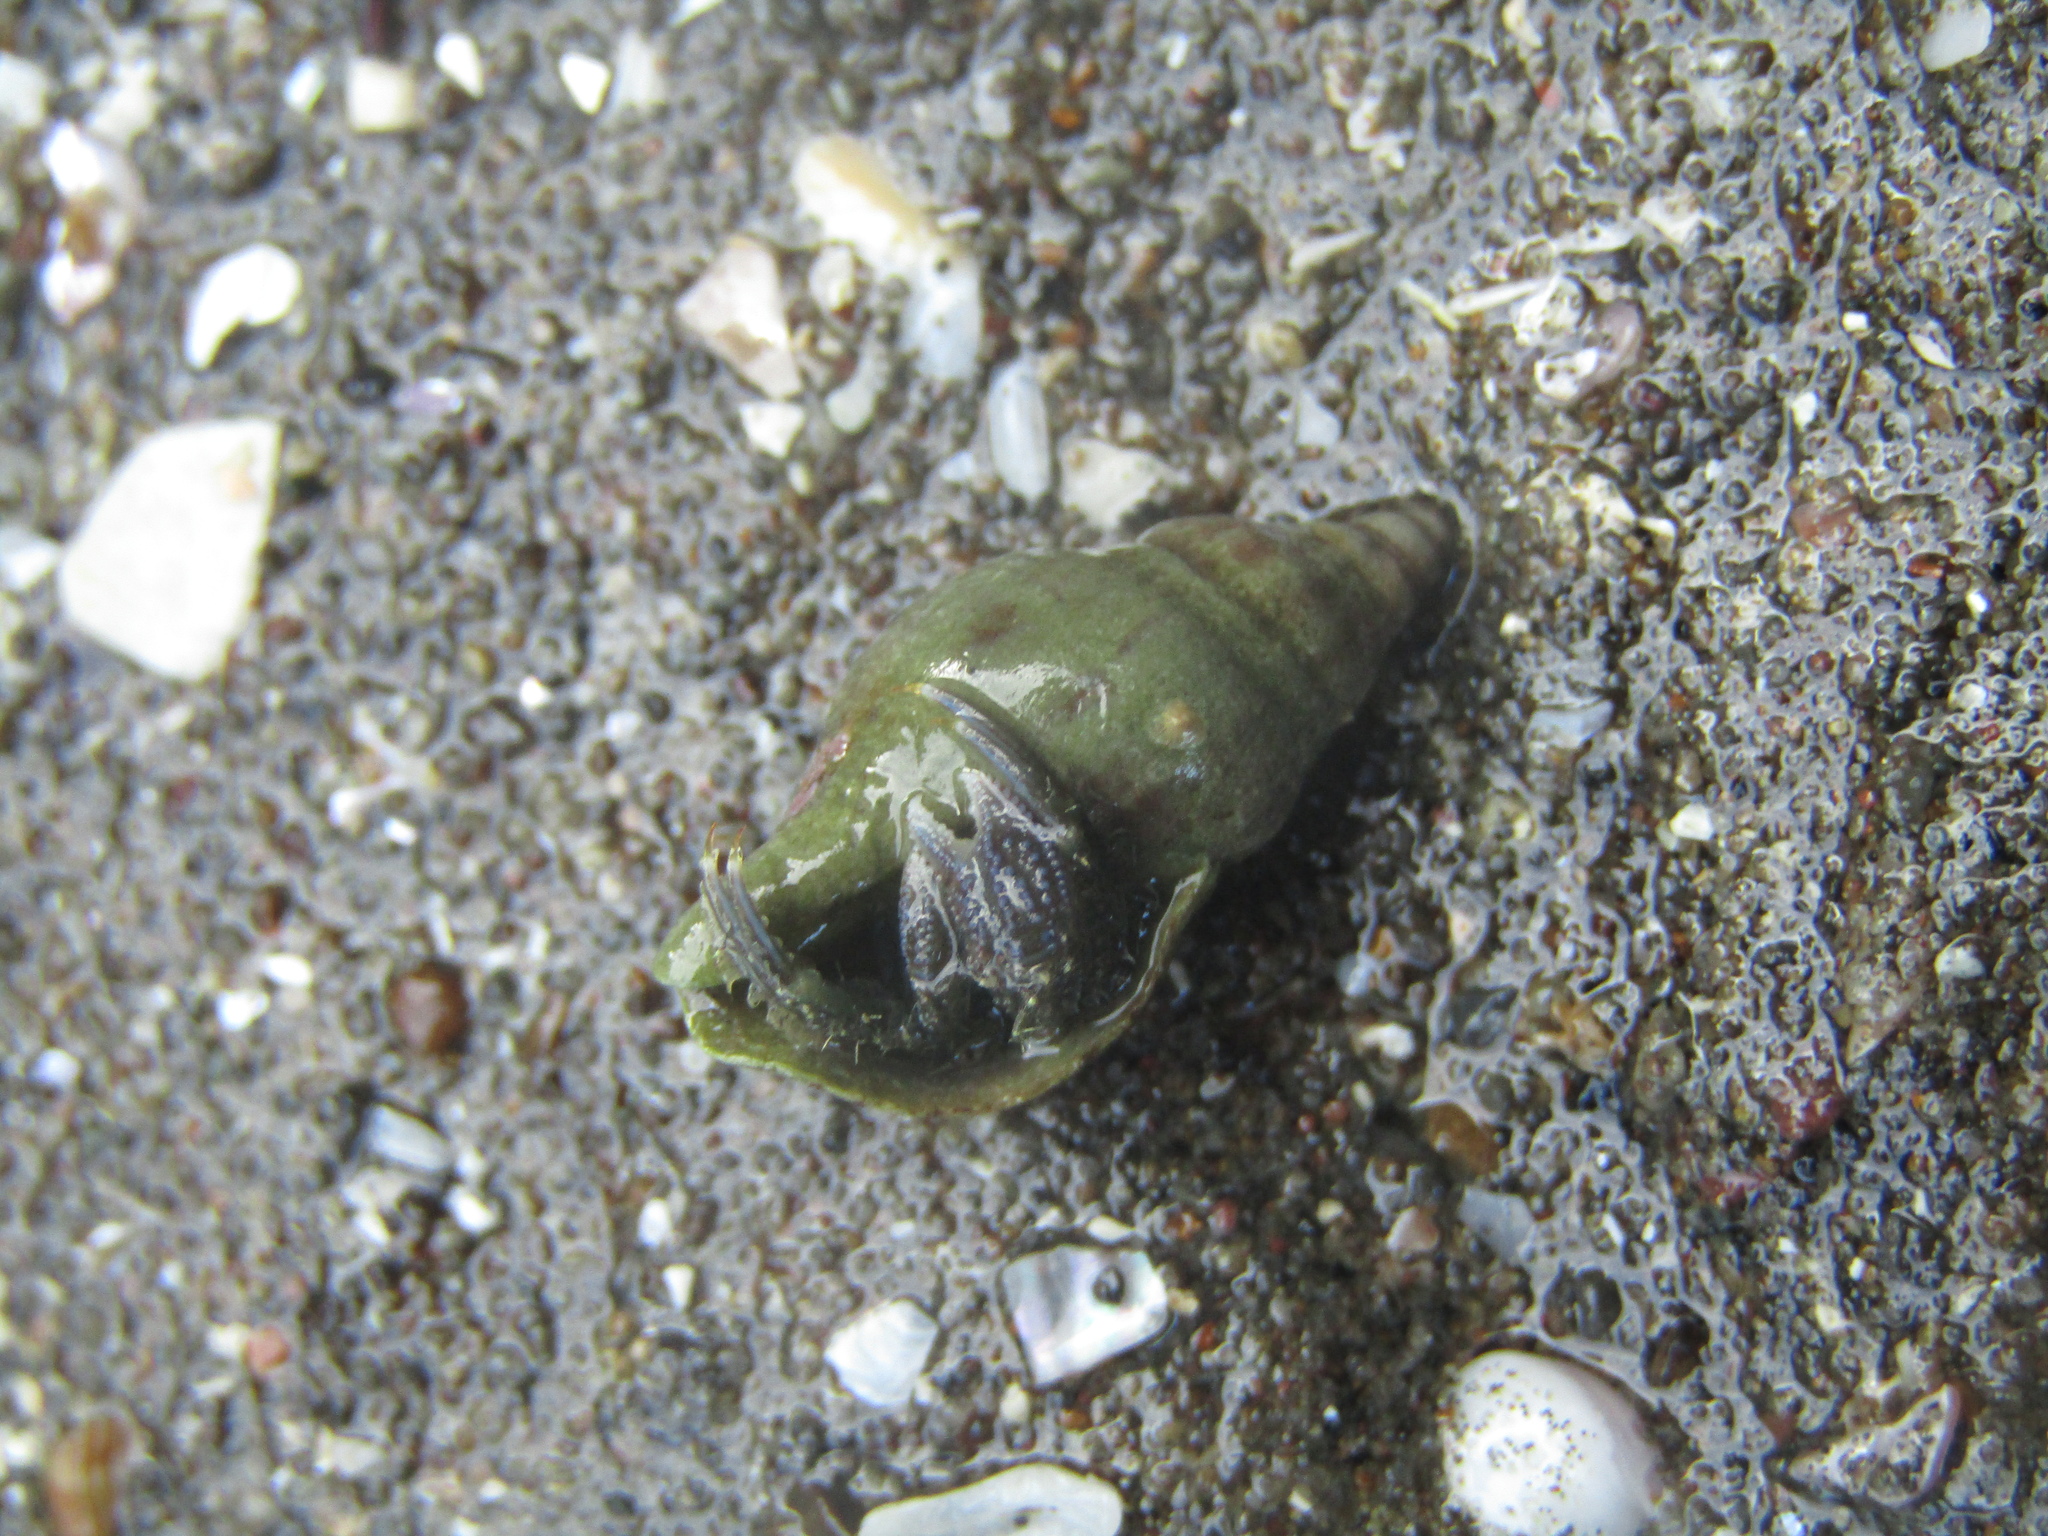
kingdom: Animalia
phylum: Mollusca
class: Gastropoda
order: Neogastropoda
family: Tudiclidae
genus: Buccinulum
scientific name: Buccinulum vittatum
